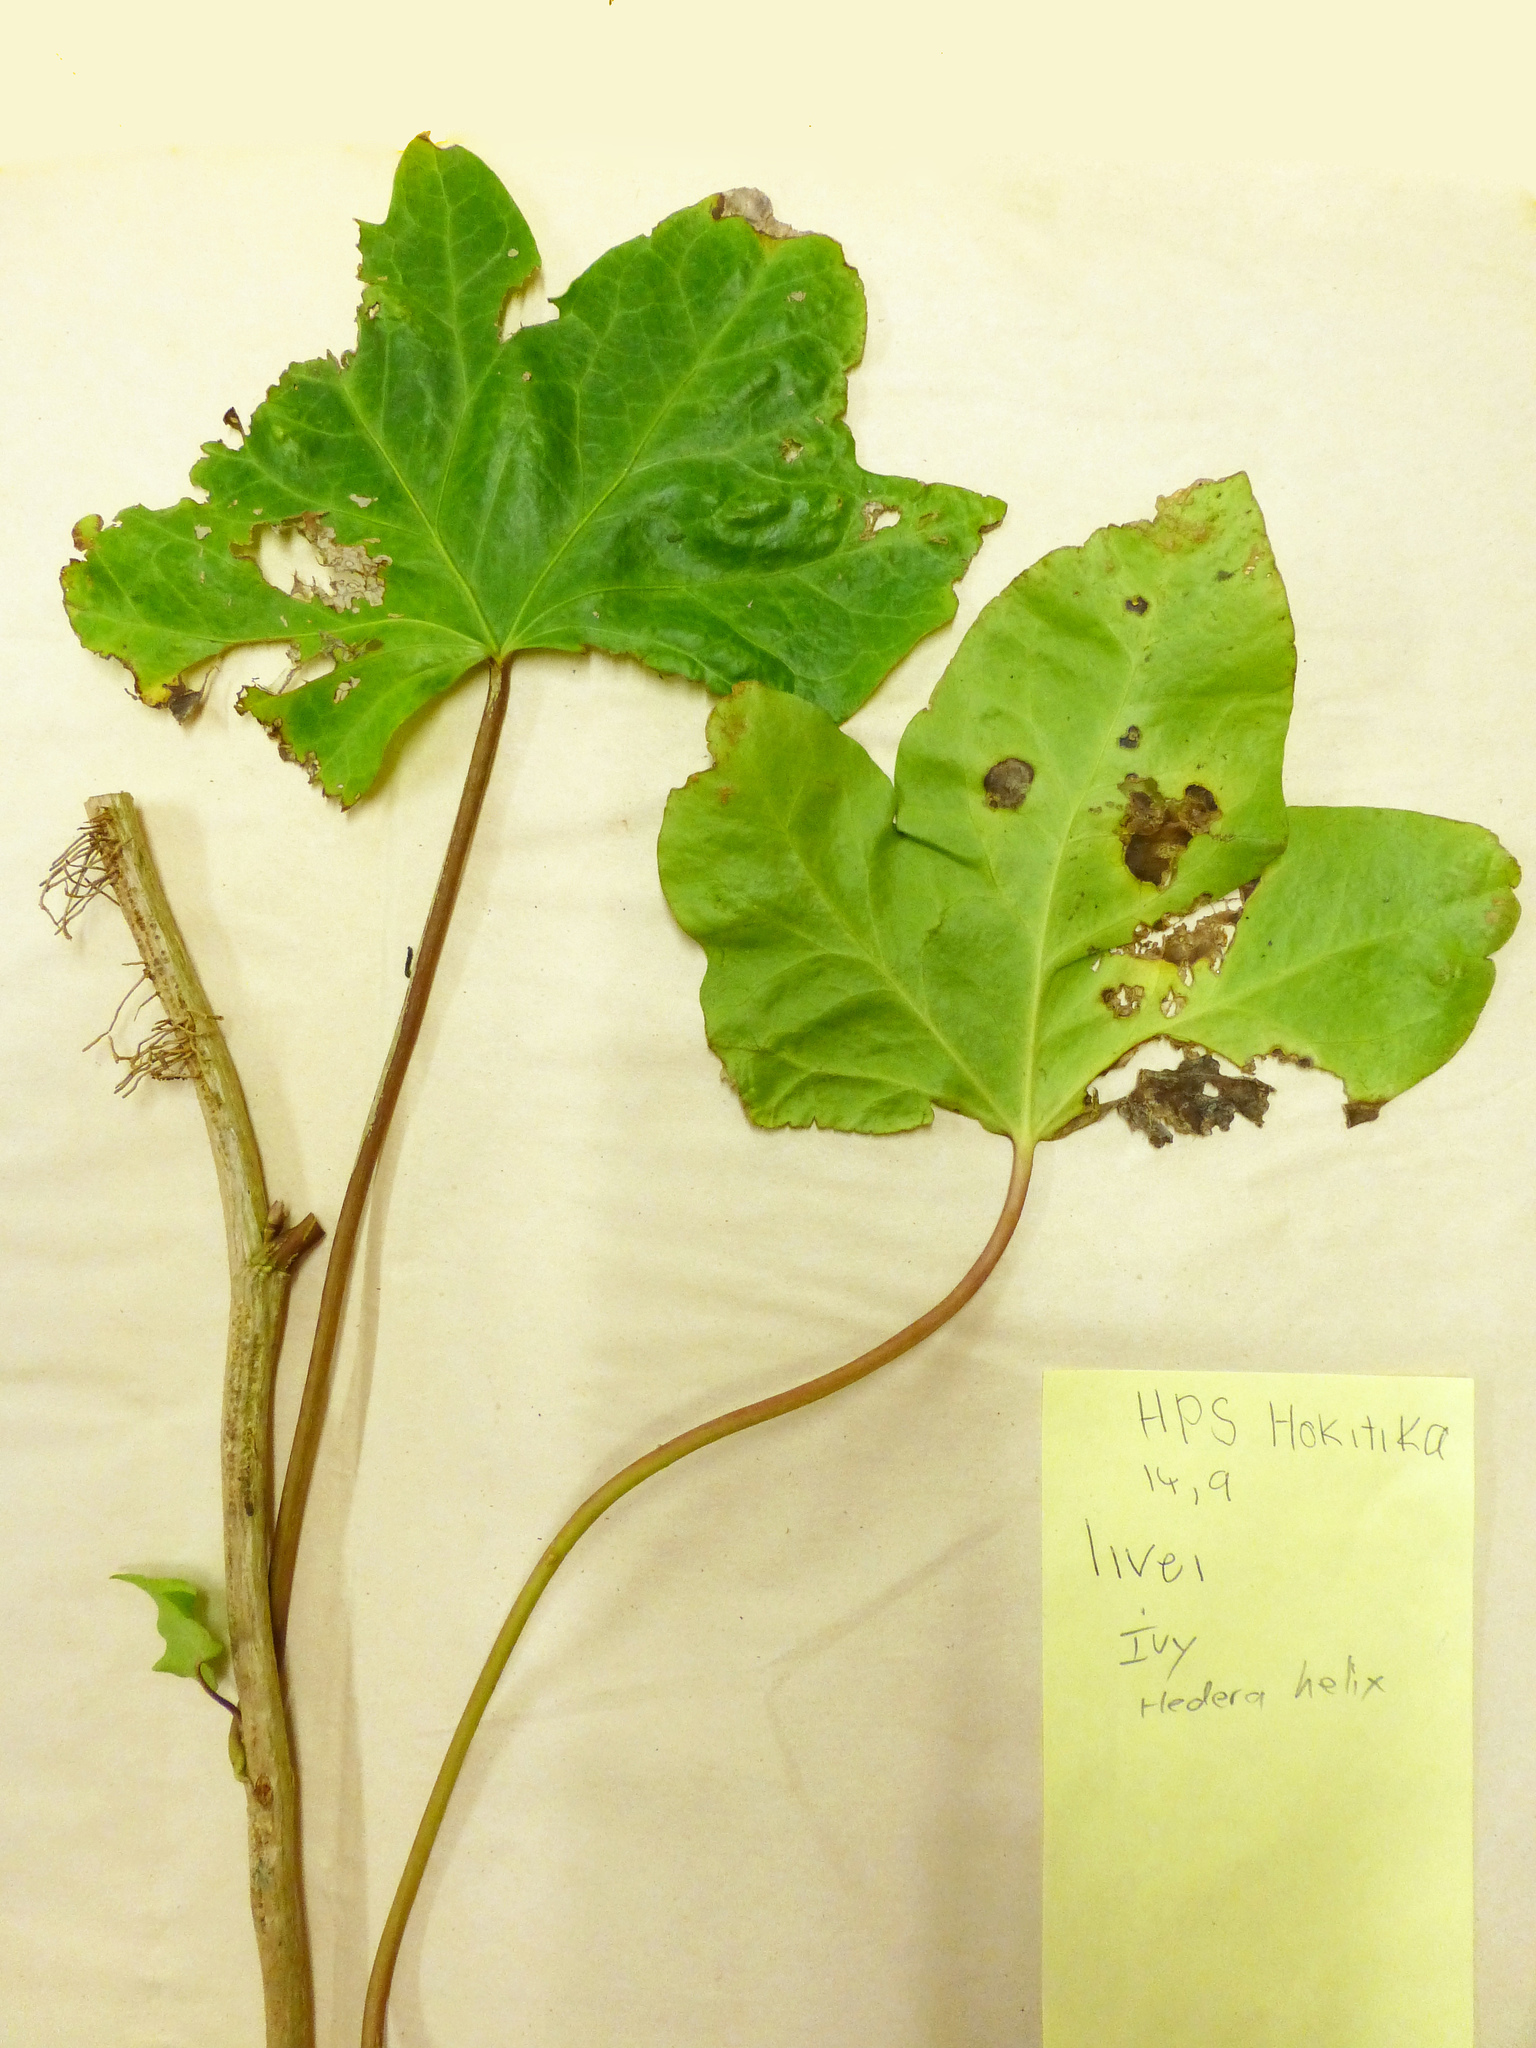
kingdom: Plantae
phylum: Tracheophyta
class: Magnoliopsida
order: Apiales
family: Araliaceae
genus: Hedera
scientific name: Hedera helix
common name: Ivy
